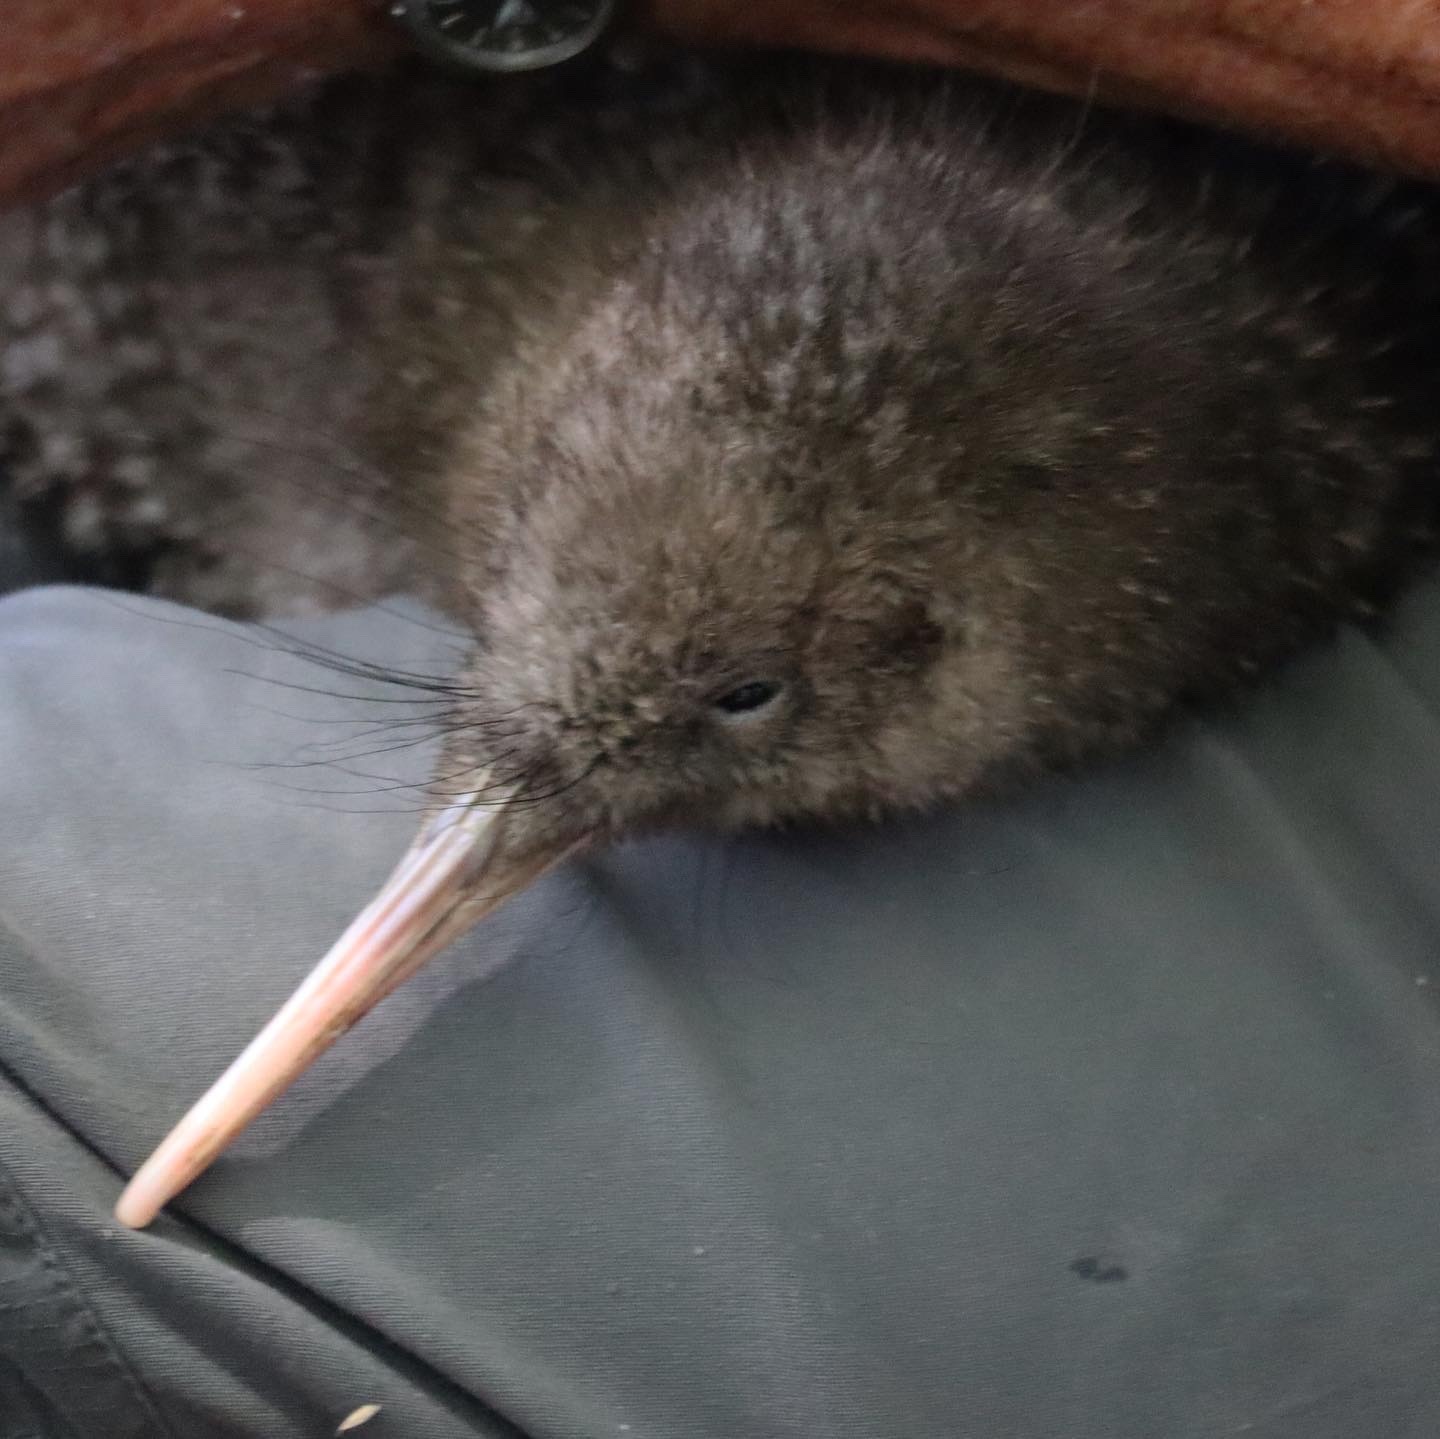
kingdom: Animalia
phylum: Chordata
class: Aves
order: Apterygiformes
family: Apterygidae
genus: Apteryx
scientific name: Apteryx haastii
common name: Great spotted kiwi
